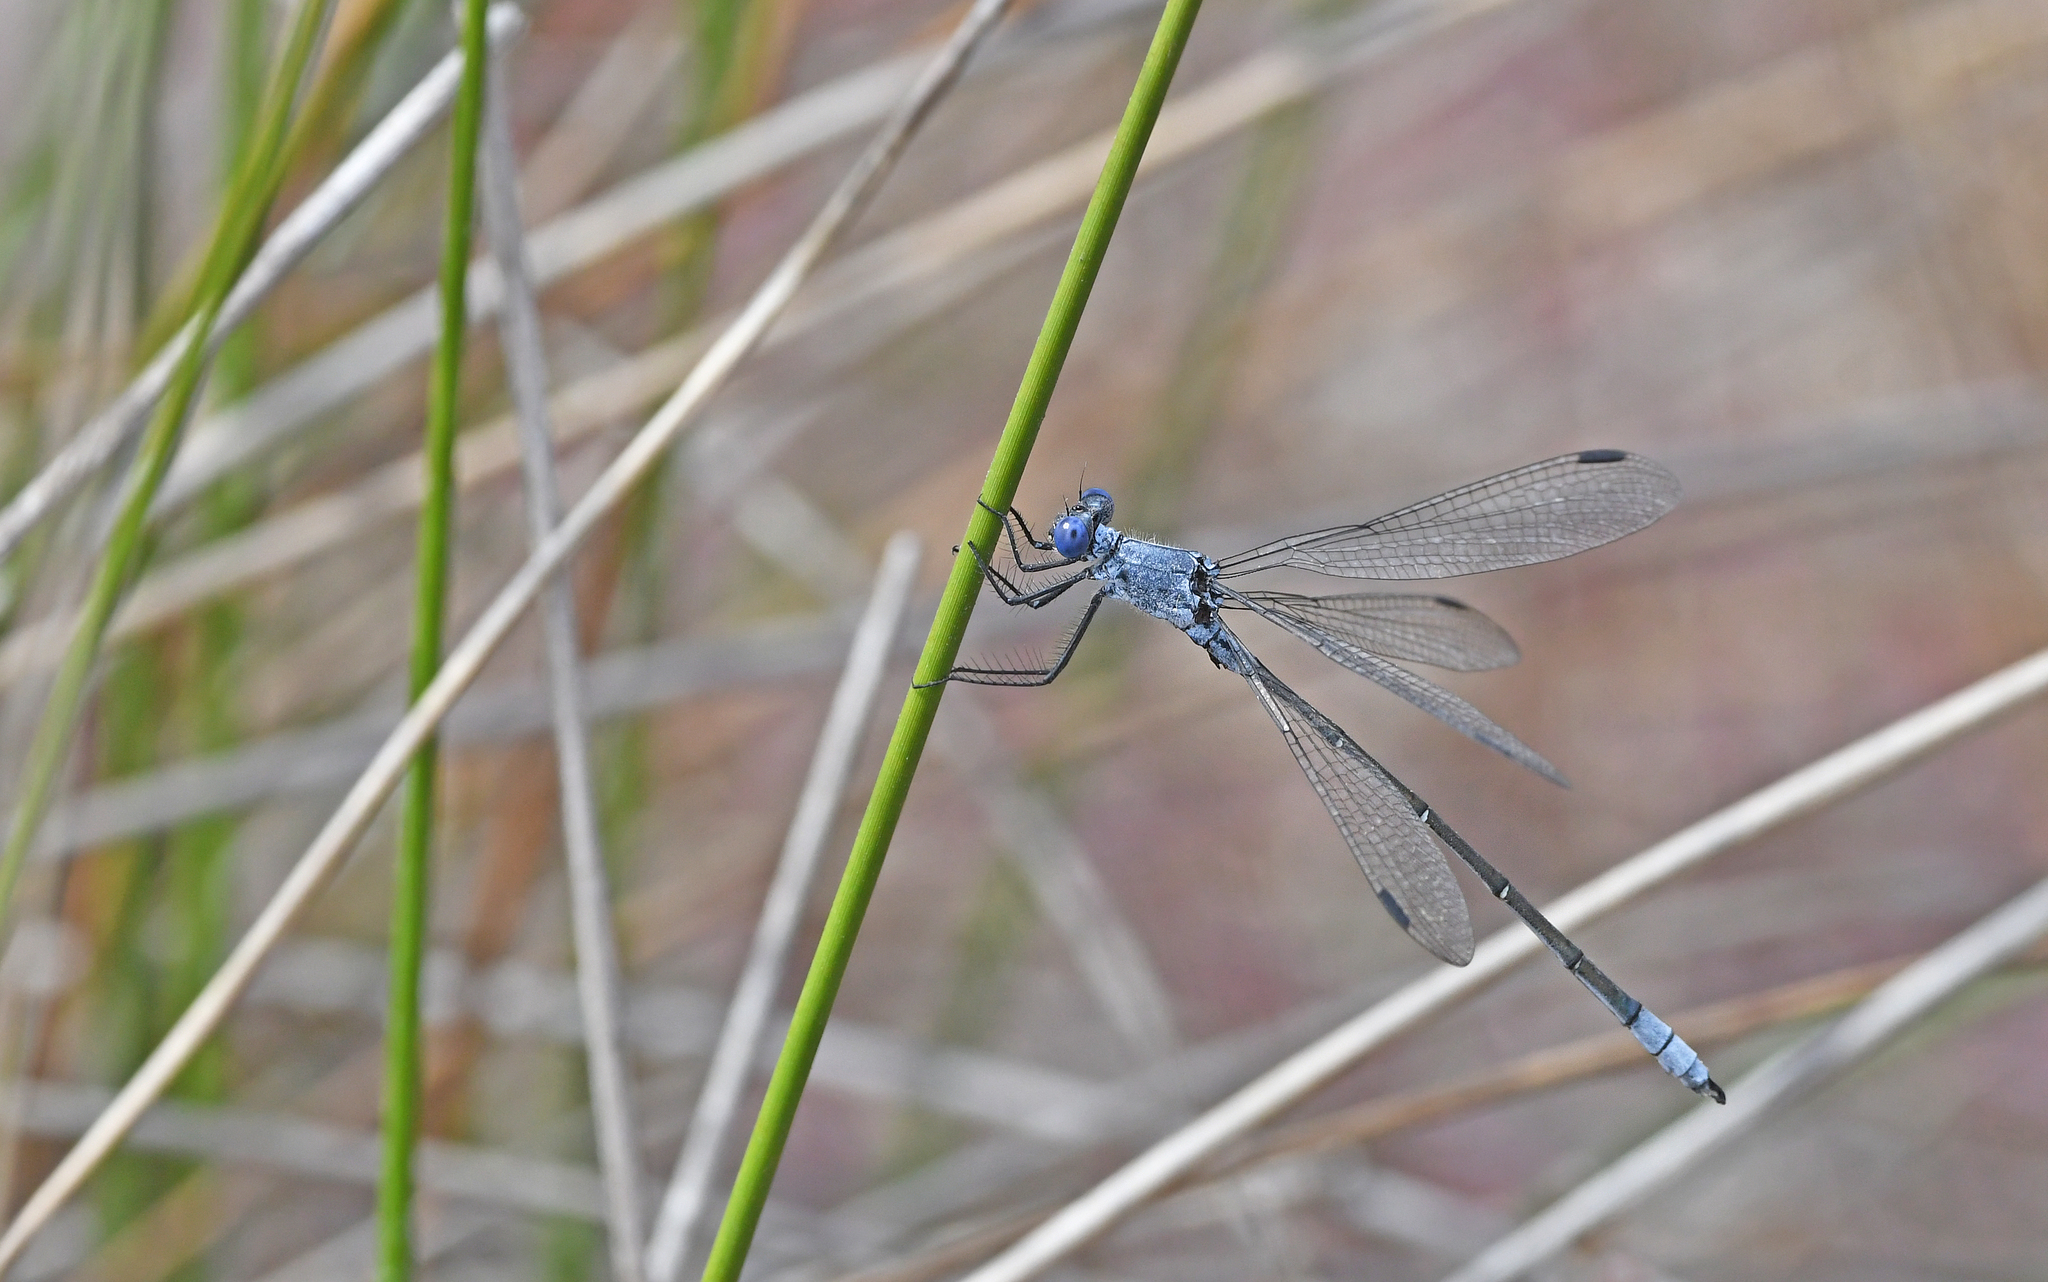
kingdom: Animalia
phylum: Arthropoda
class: Insecta
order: Odonata
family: Lestidae
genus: Lestes
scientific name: Lestes macrostigma
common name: Dark spreadwing
